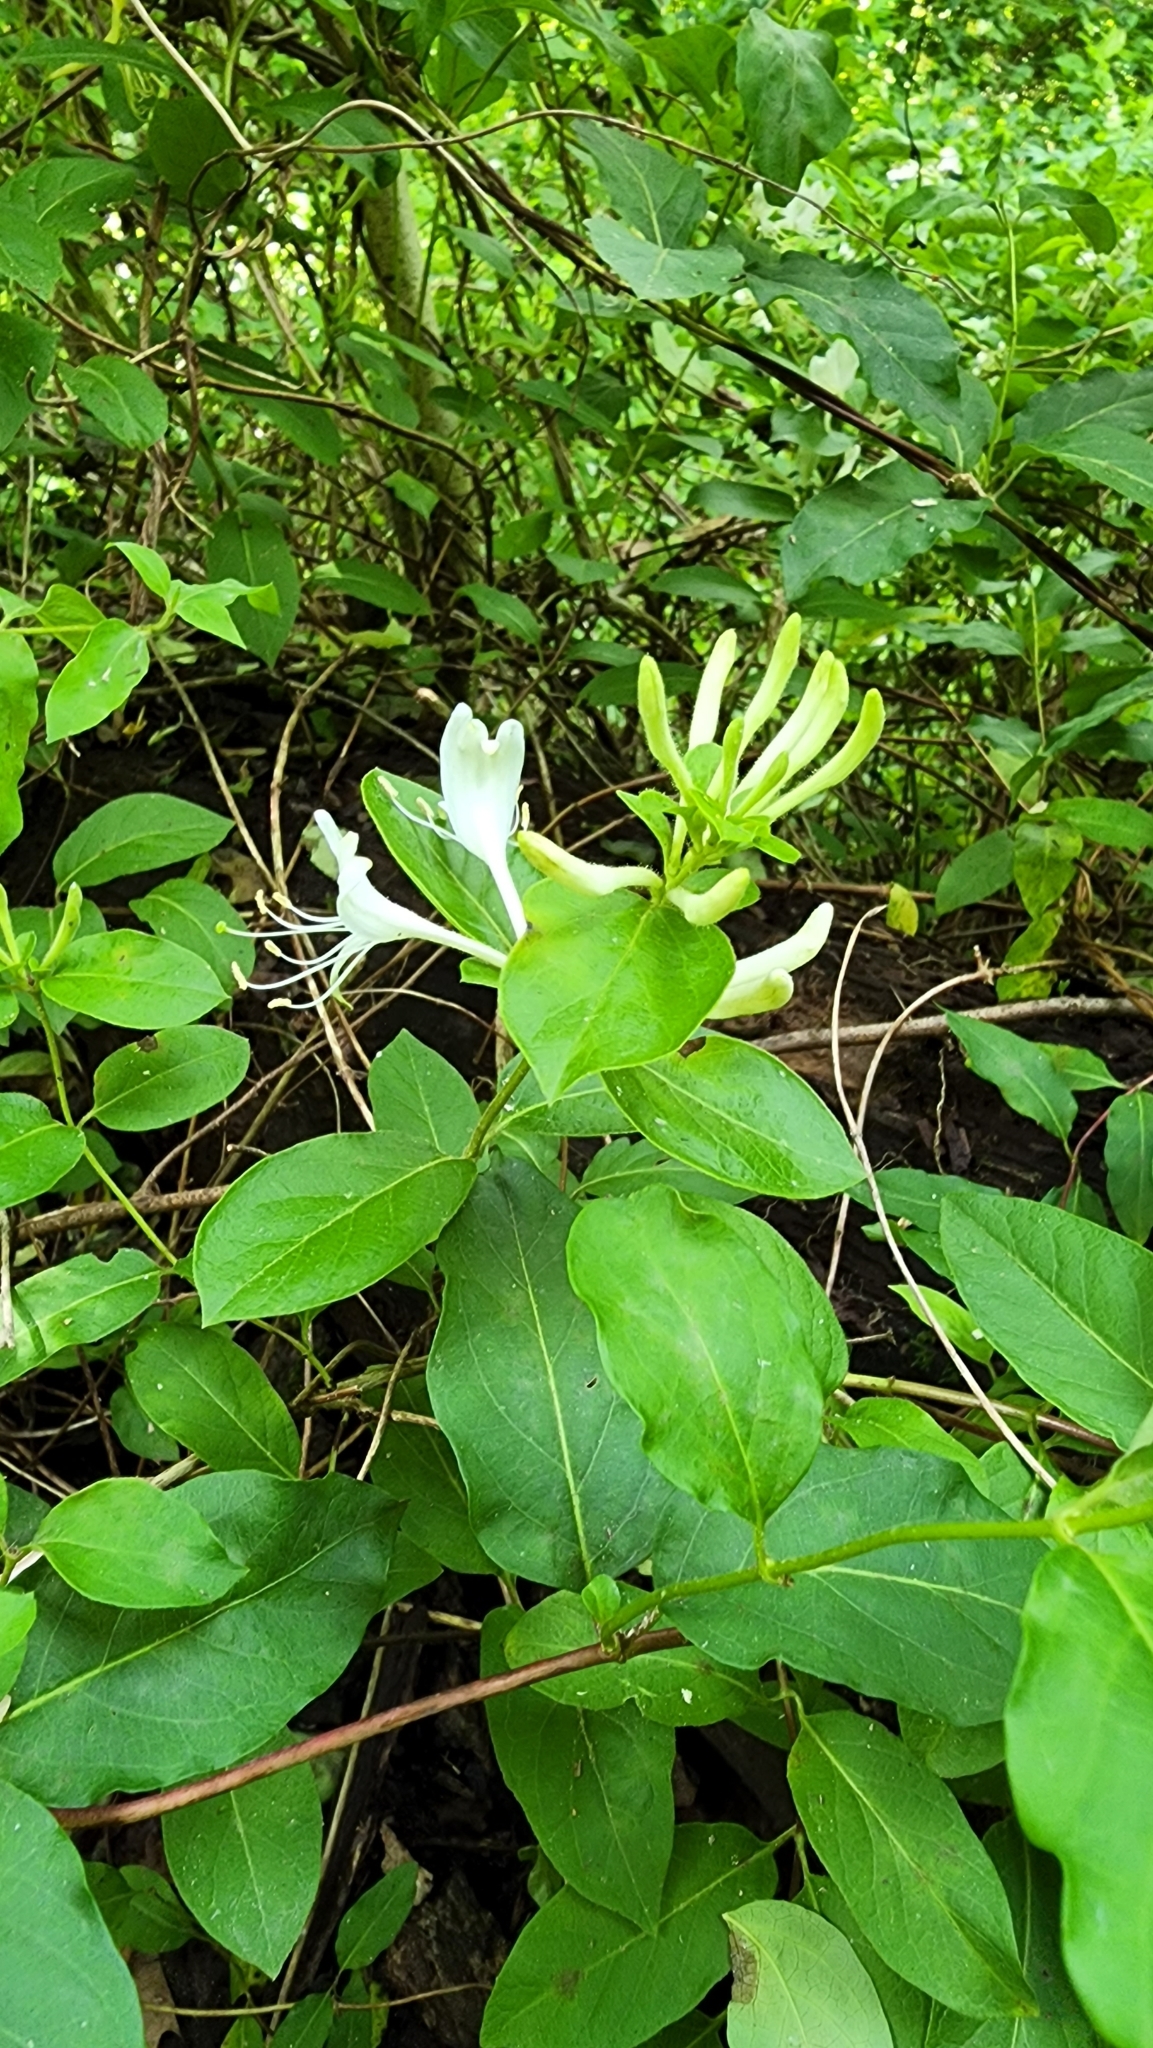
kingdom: Plantae
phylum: Tracheophyta
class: Magnoliopsida
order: Dipsacales
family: Caprifoliaceae
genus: Lonicera
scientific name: Lonicera japonica
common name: Japanese honeysuckle
